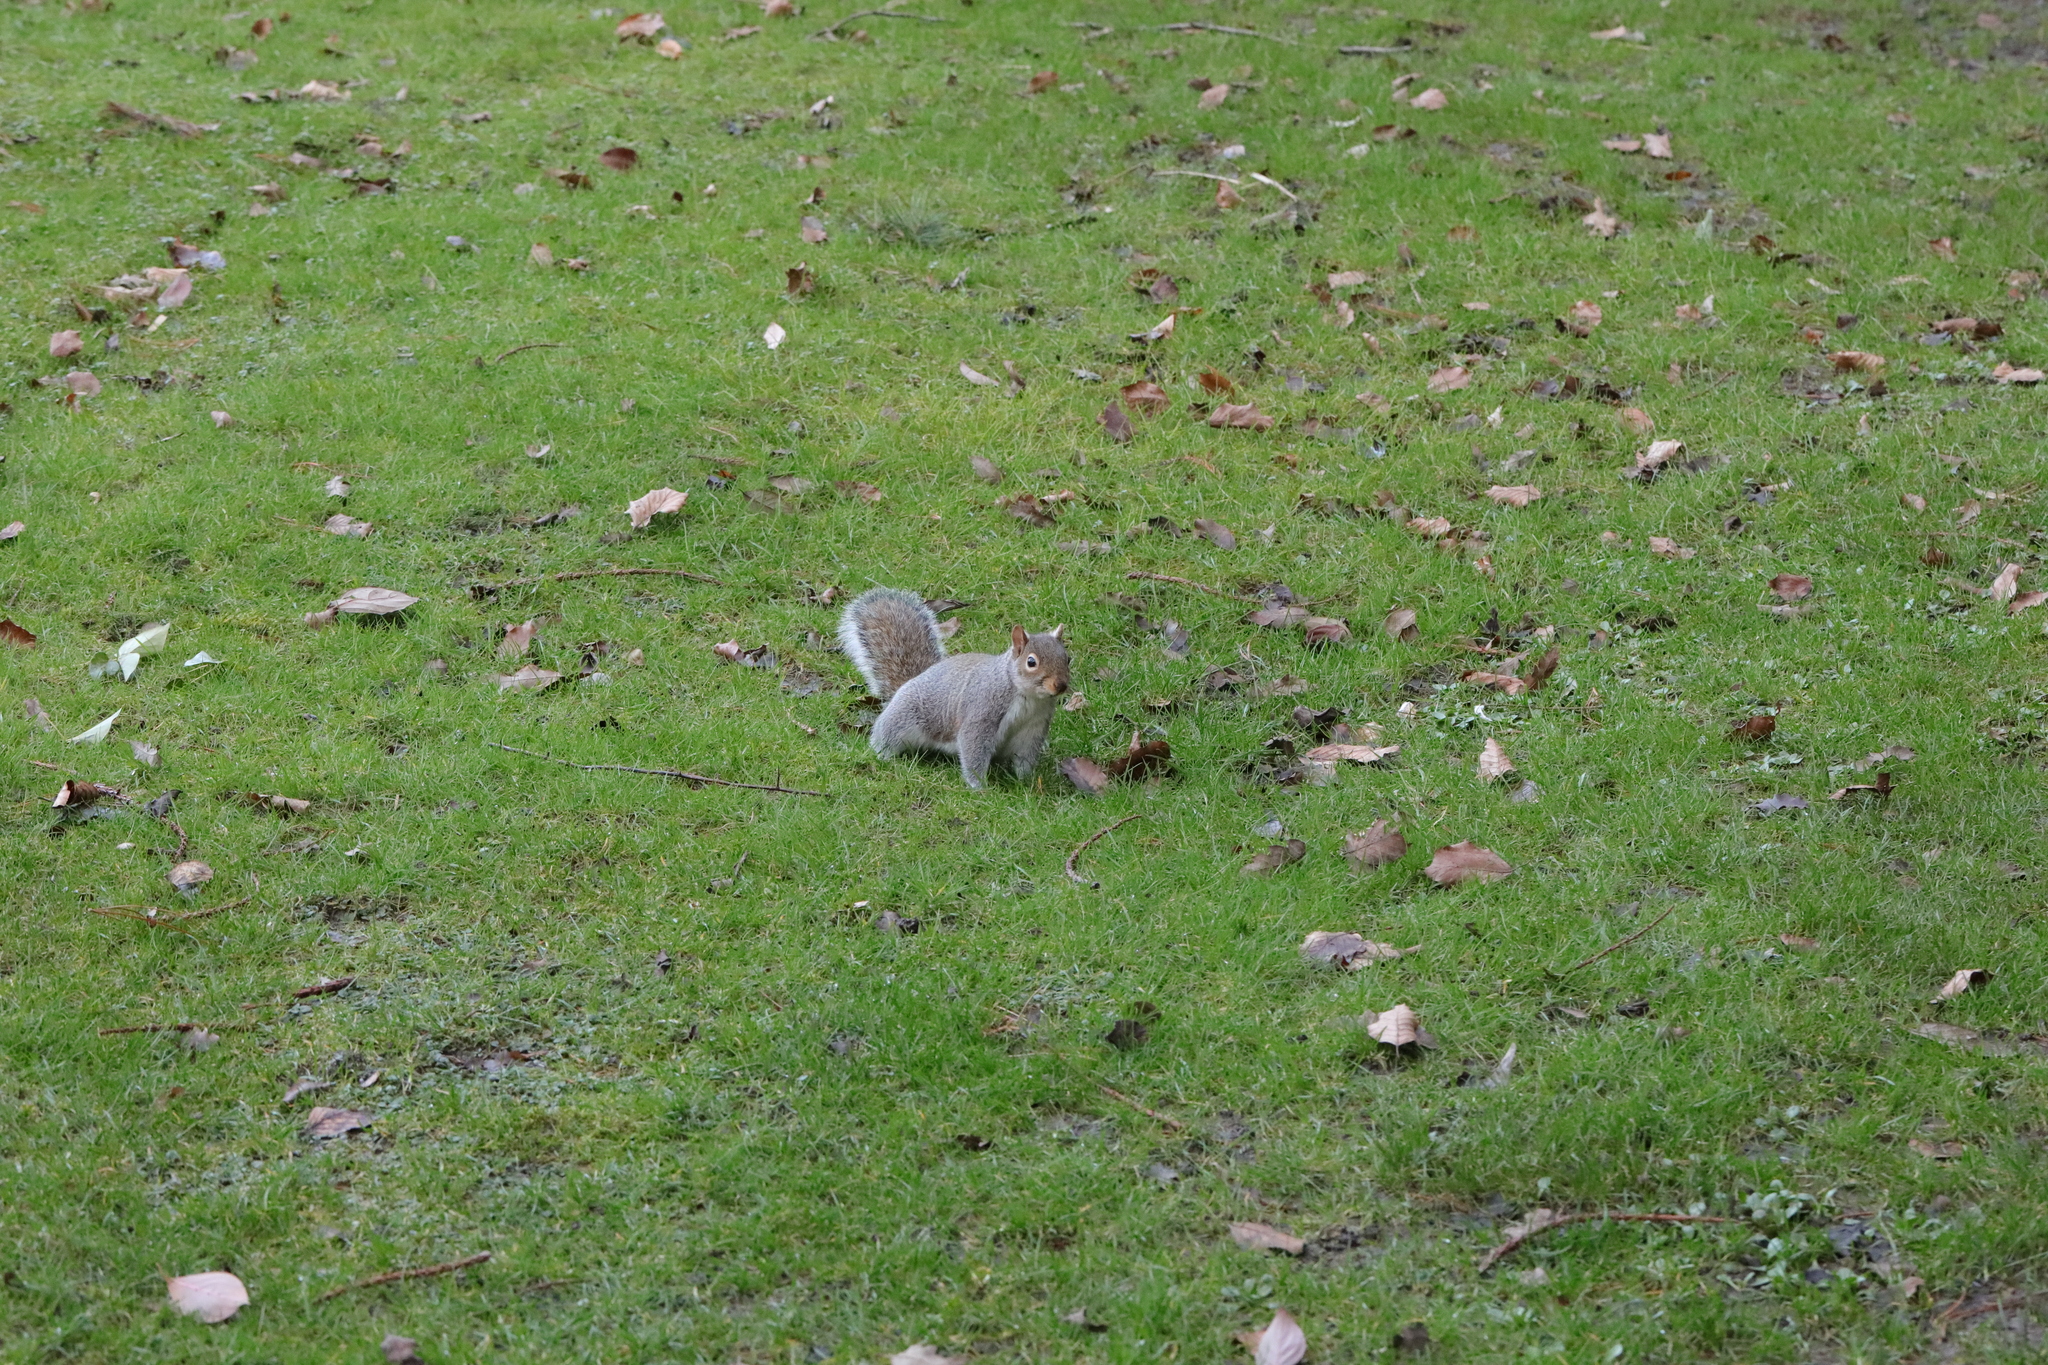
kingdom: Animalia
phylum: Chordata
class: Mammalia
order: Rodentia
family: Sciuridae
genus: Sciurus
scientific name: Sciurus carolinensis
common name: Eastern gray squirrel
